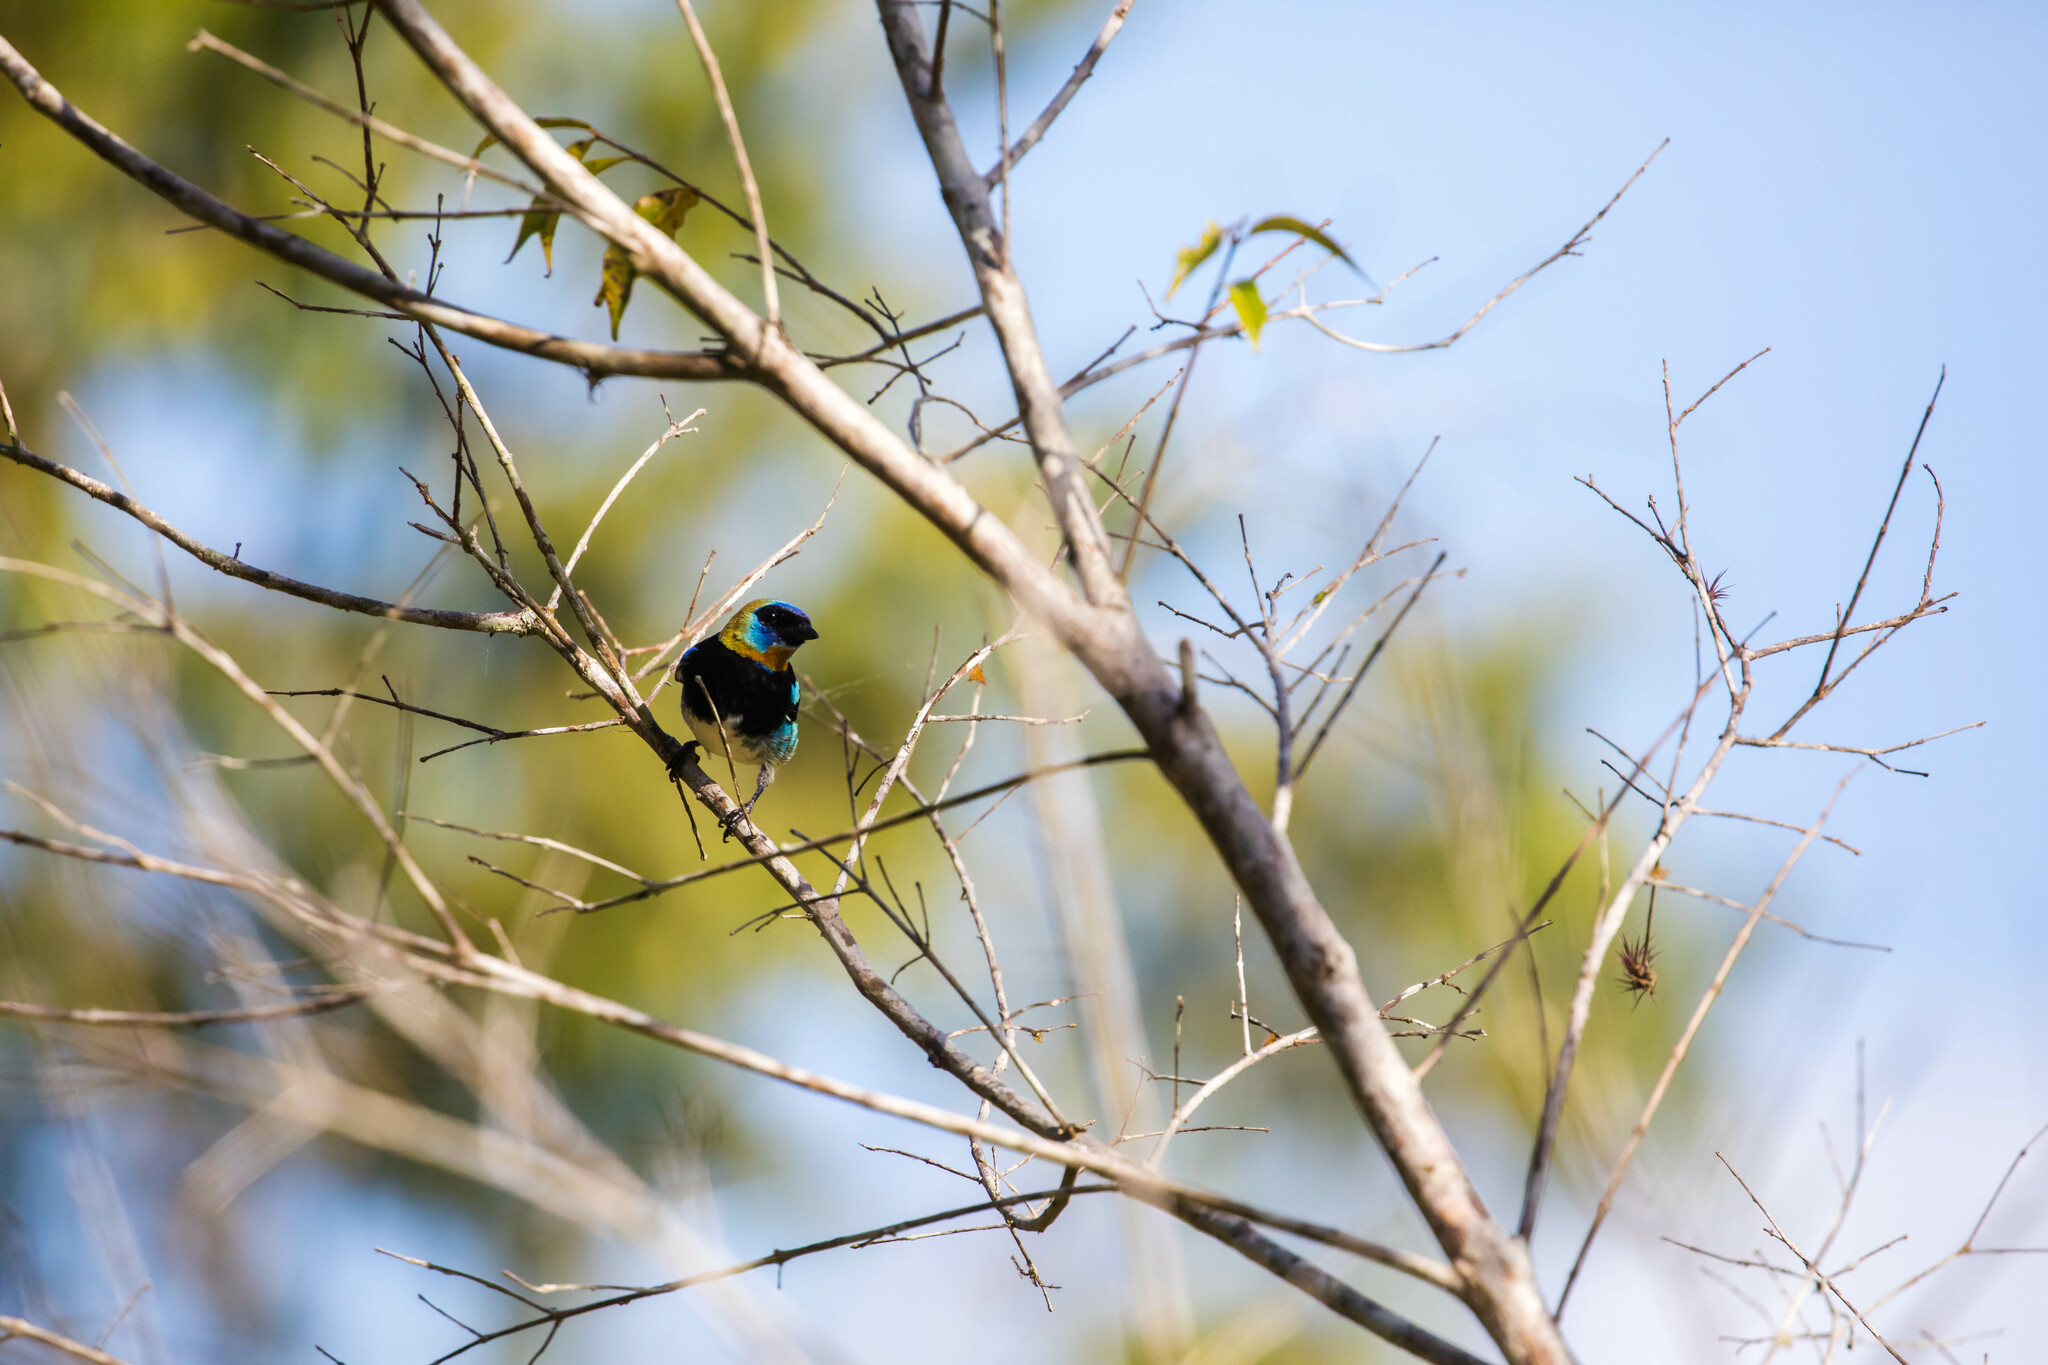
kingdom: Animalia
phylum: Chordata
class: Aves
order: Passeriformes
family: Thraupidae
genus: Stilpnia
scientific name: Stilpnia larvata
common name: Golden-hooded tanager
